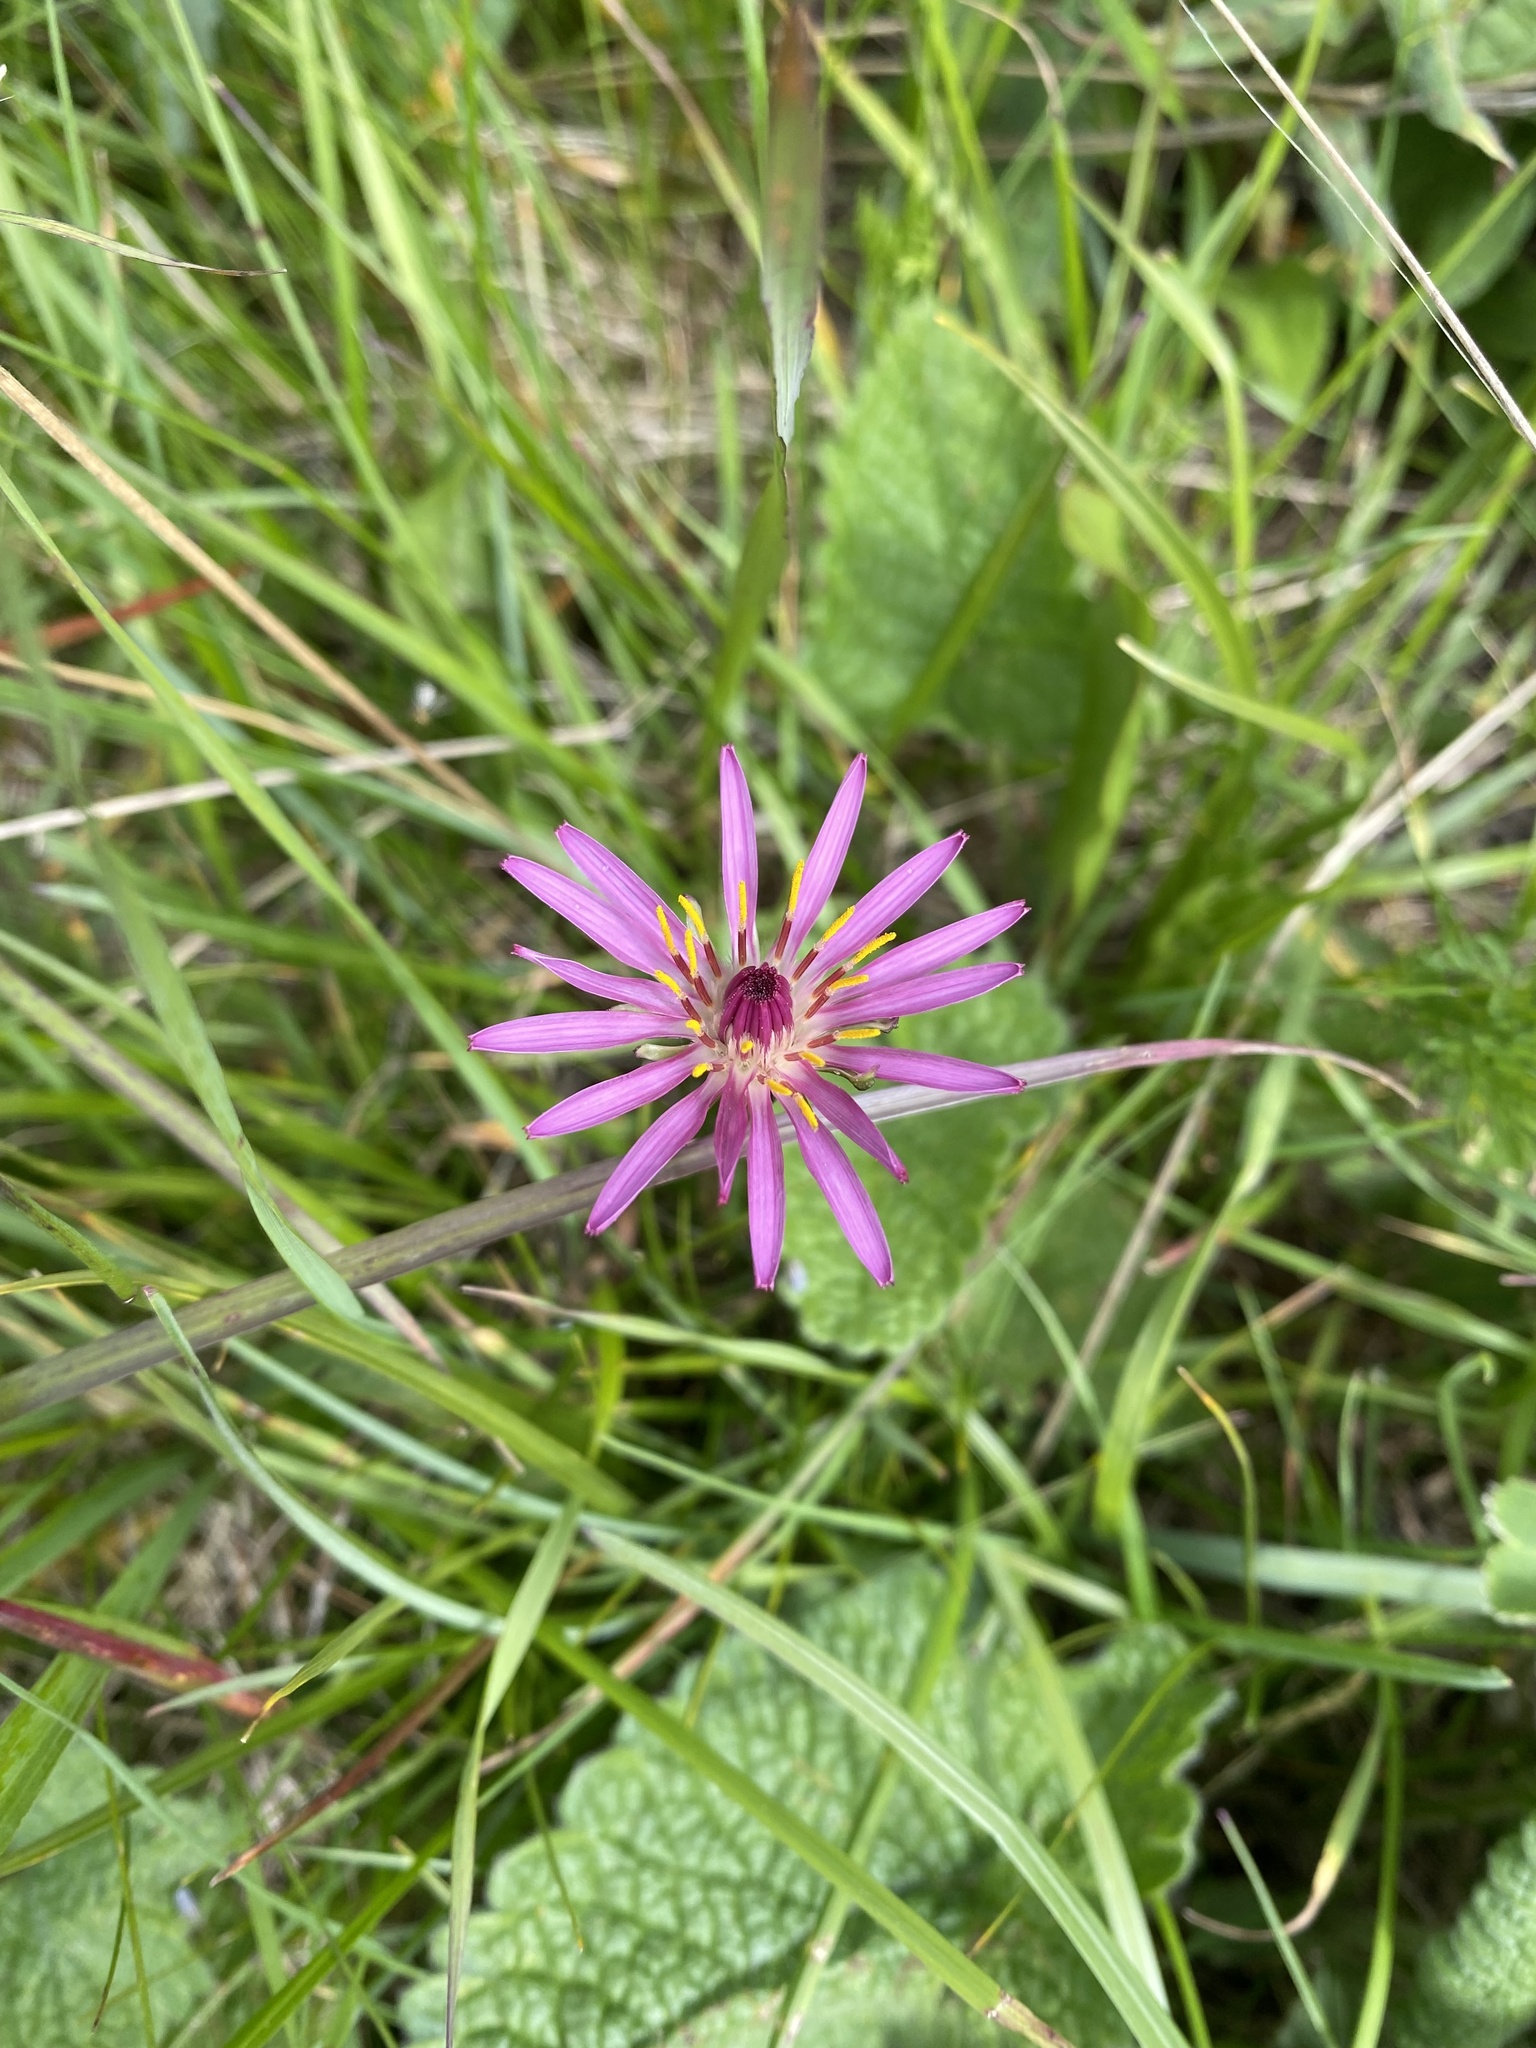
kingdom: Plantae
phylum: Tracheophyta
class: Magnoliopsida
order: Asterales
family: Asteraceae
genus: Taraxacum
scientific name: Taraxacum porphyranthum
